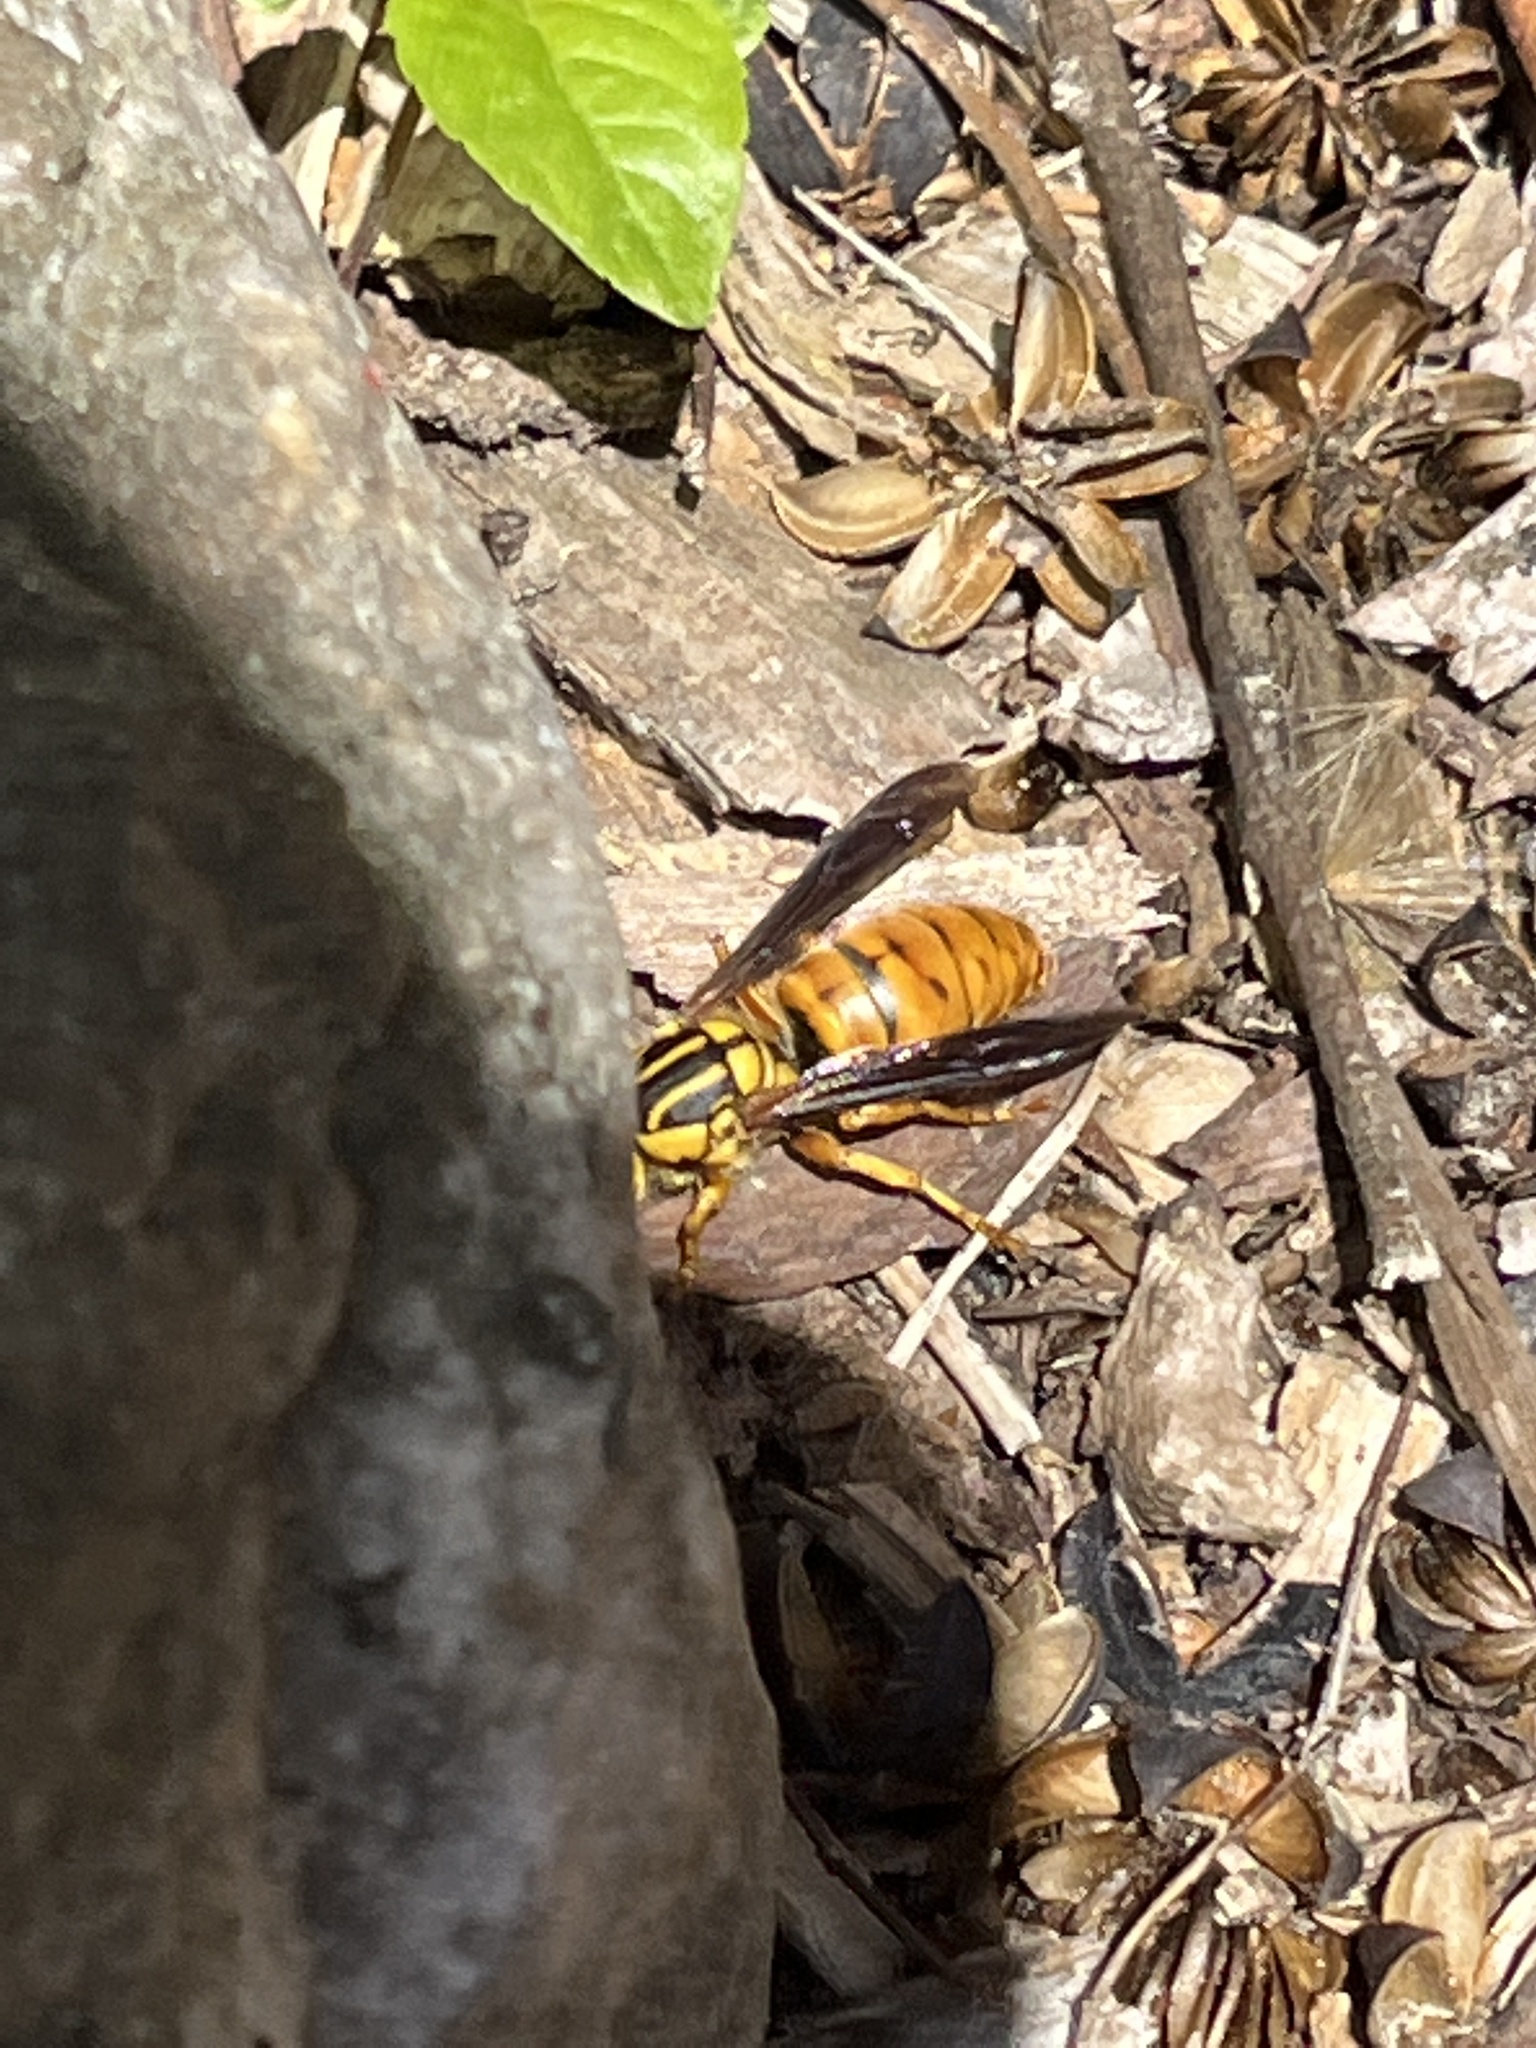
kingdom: Animalia
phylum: Arthropoda
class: Insecta
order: Hymenoptera
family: Vespidae
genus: Vespula
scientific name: Vespula squamosa
